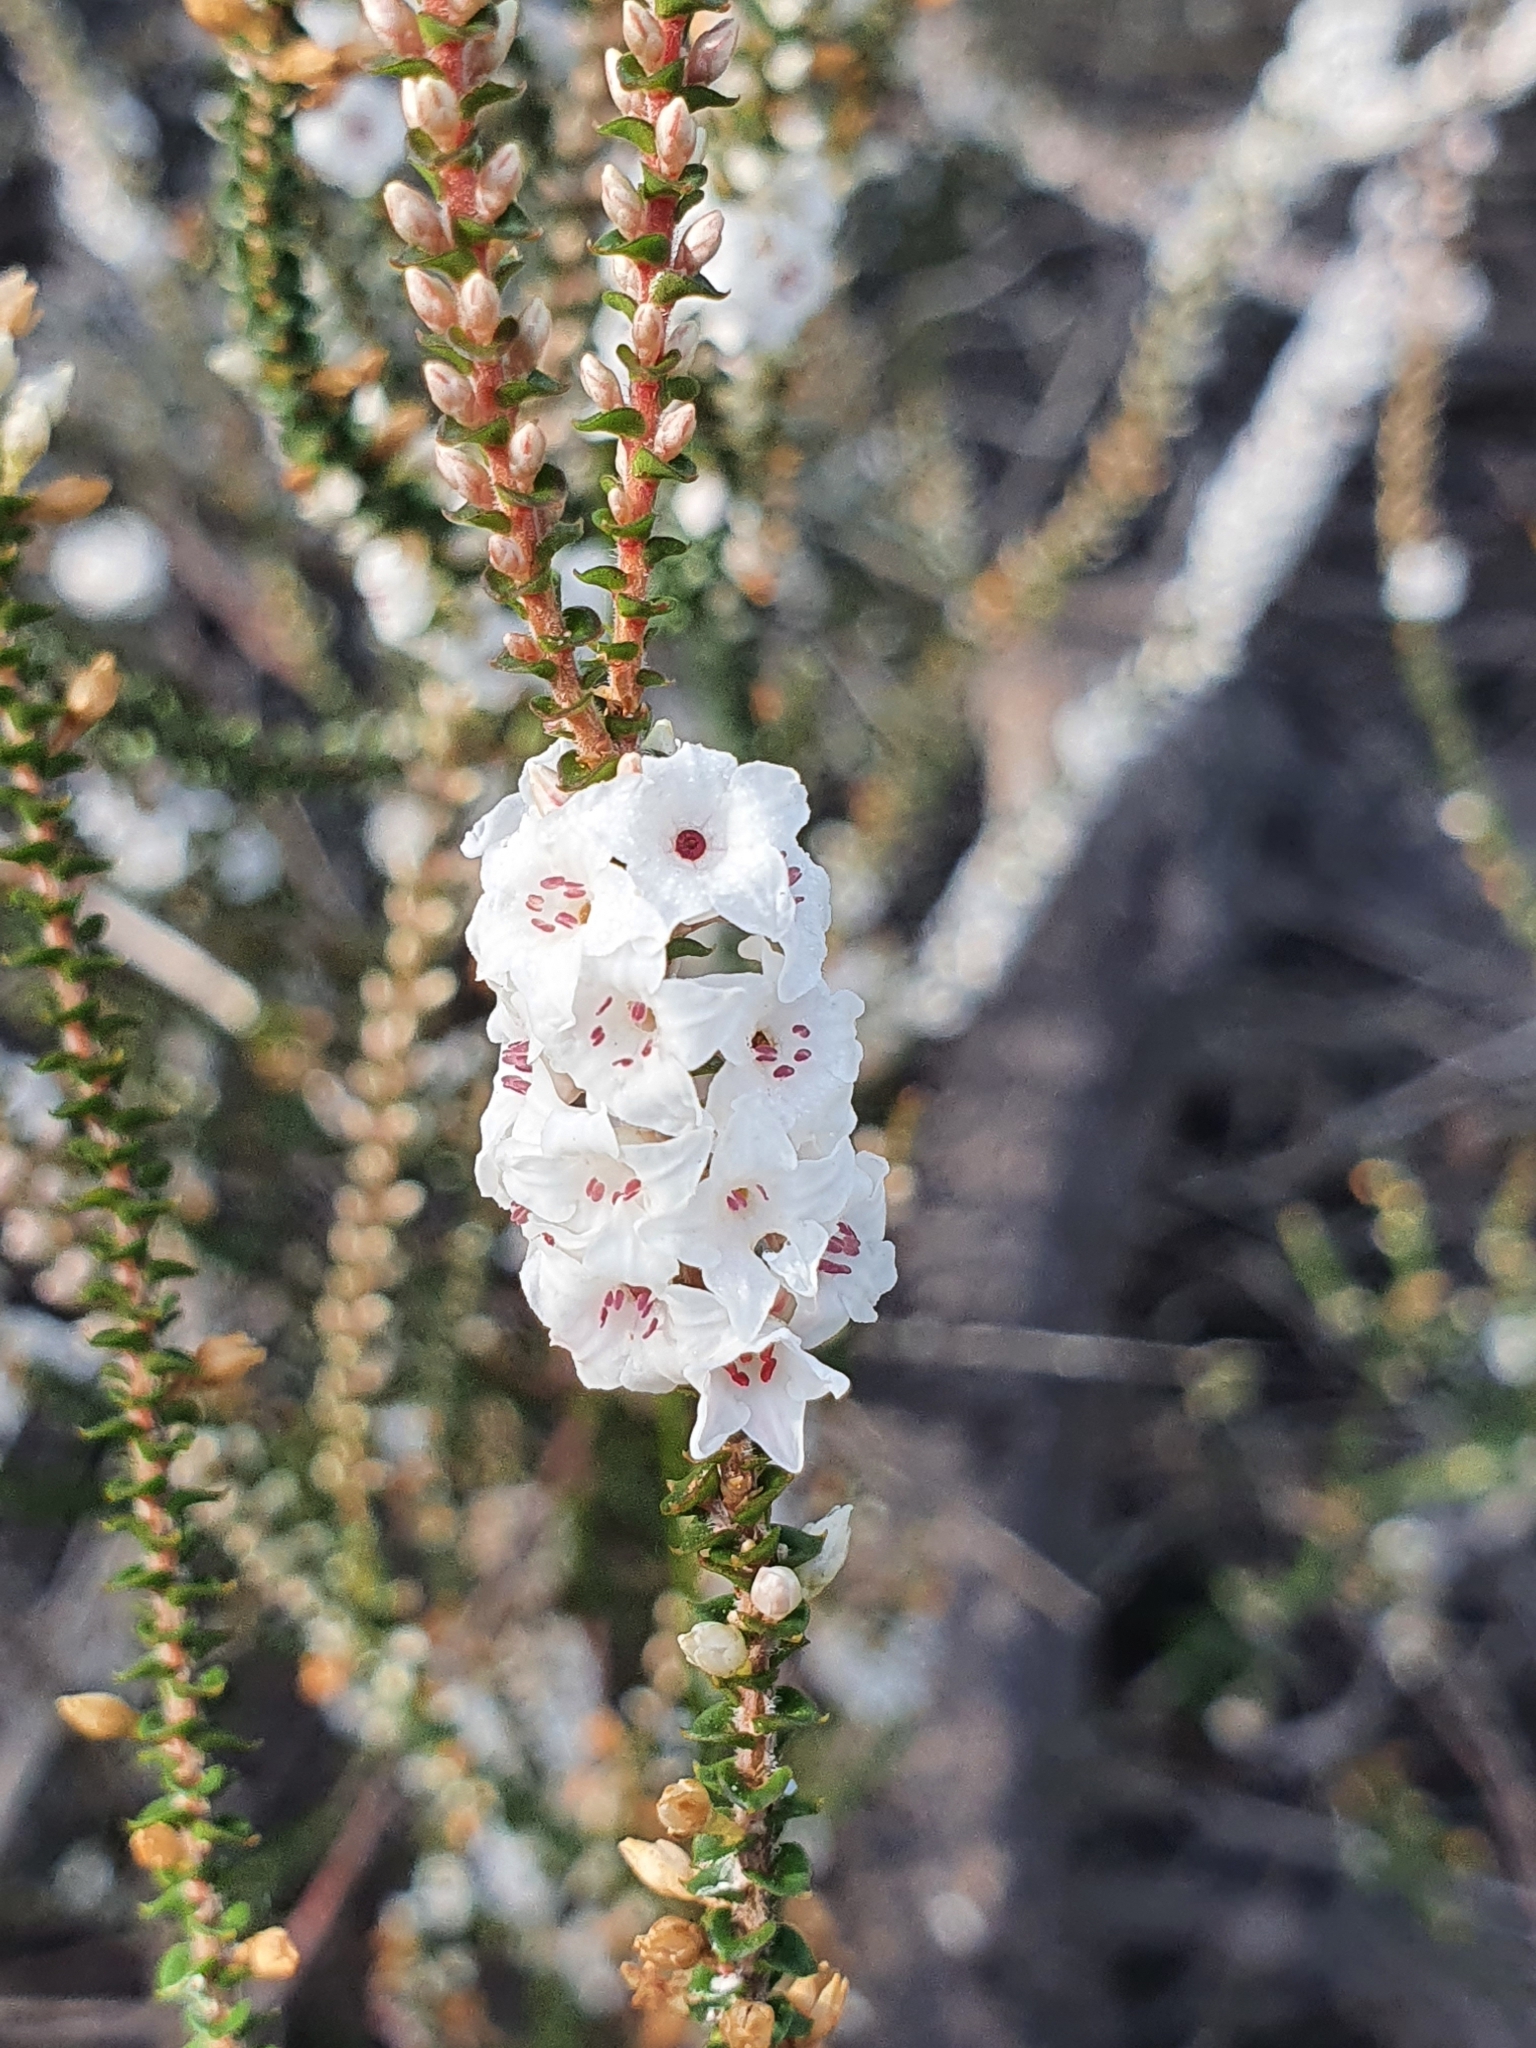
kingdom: Plantae
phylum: Tracheophyta
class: Magnoliopsida
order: Ericales
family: Ericaceae
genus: Epacris
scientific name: Epacris microphylla
